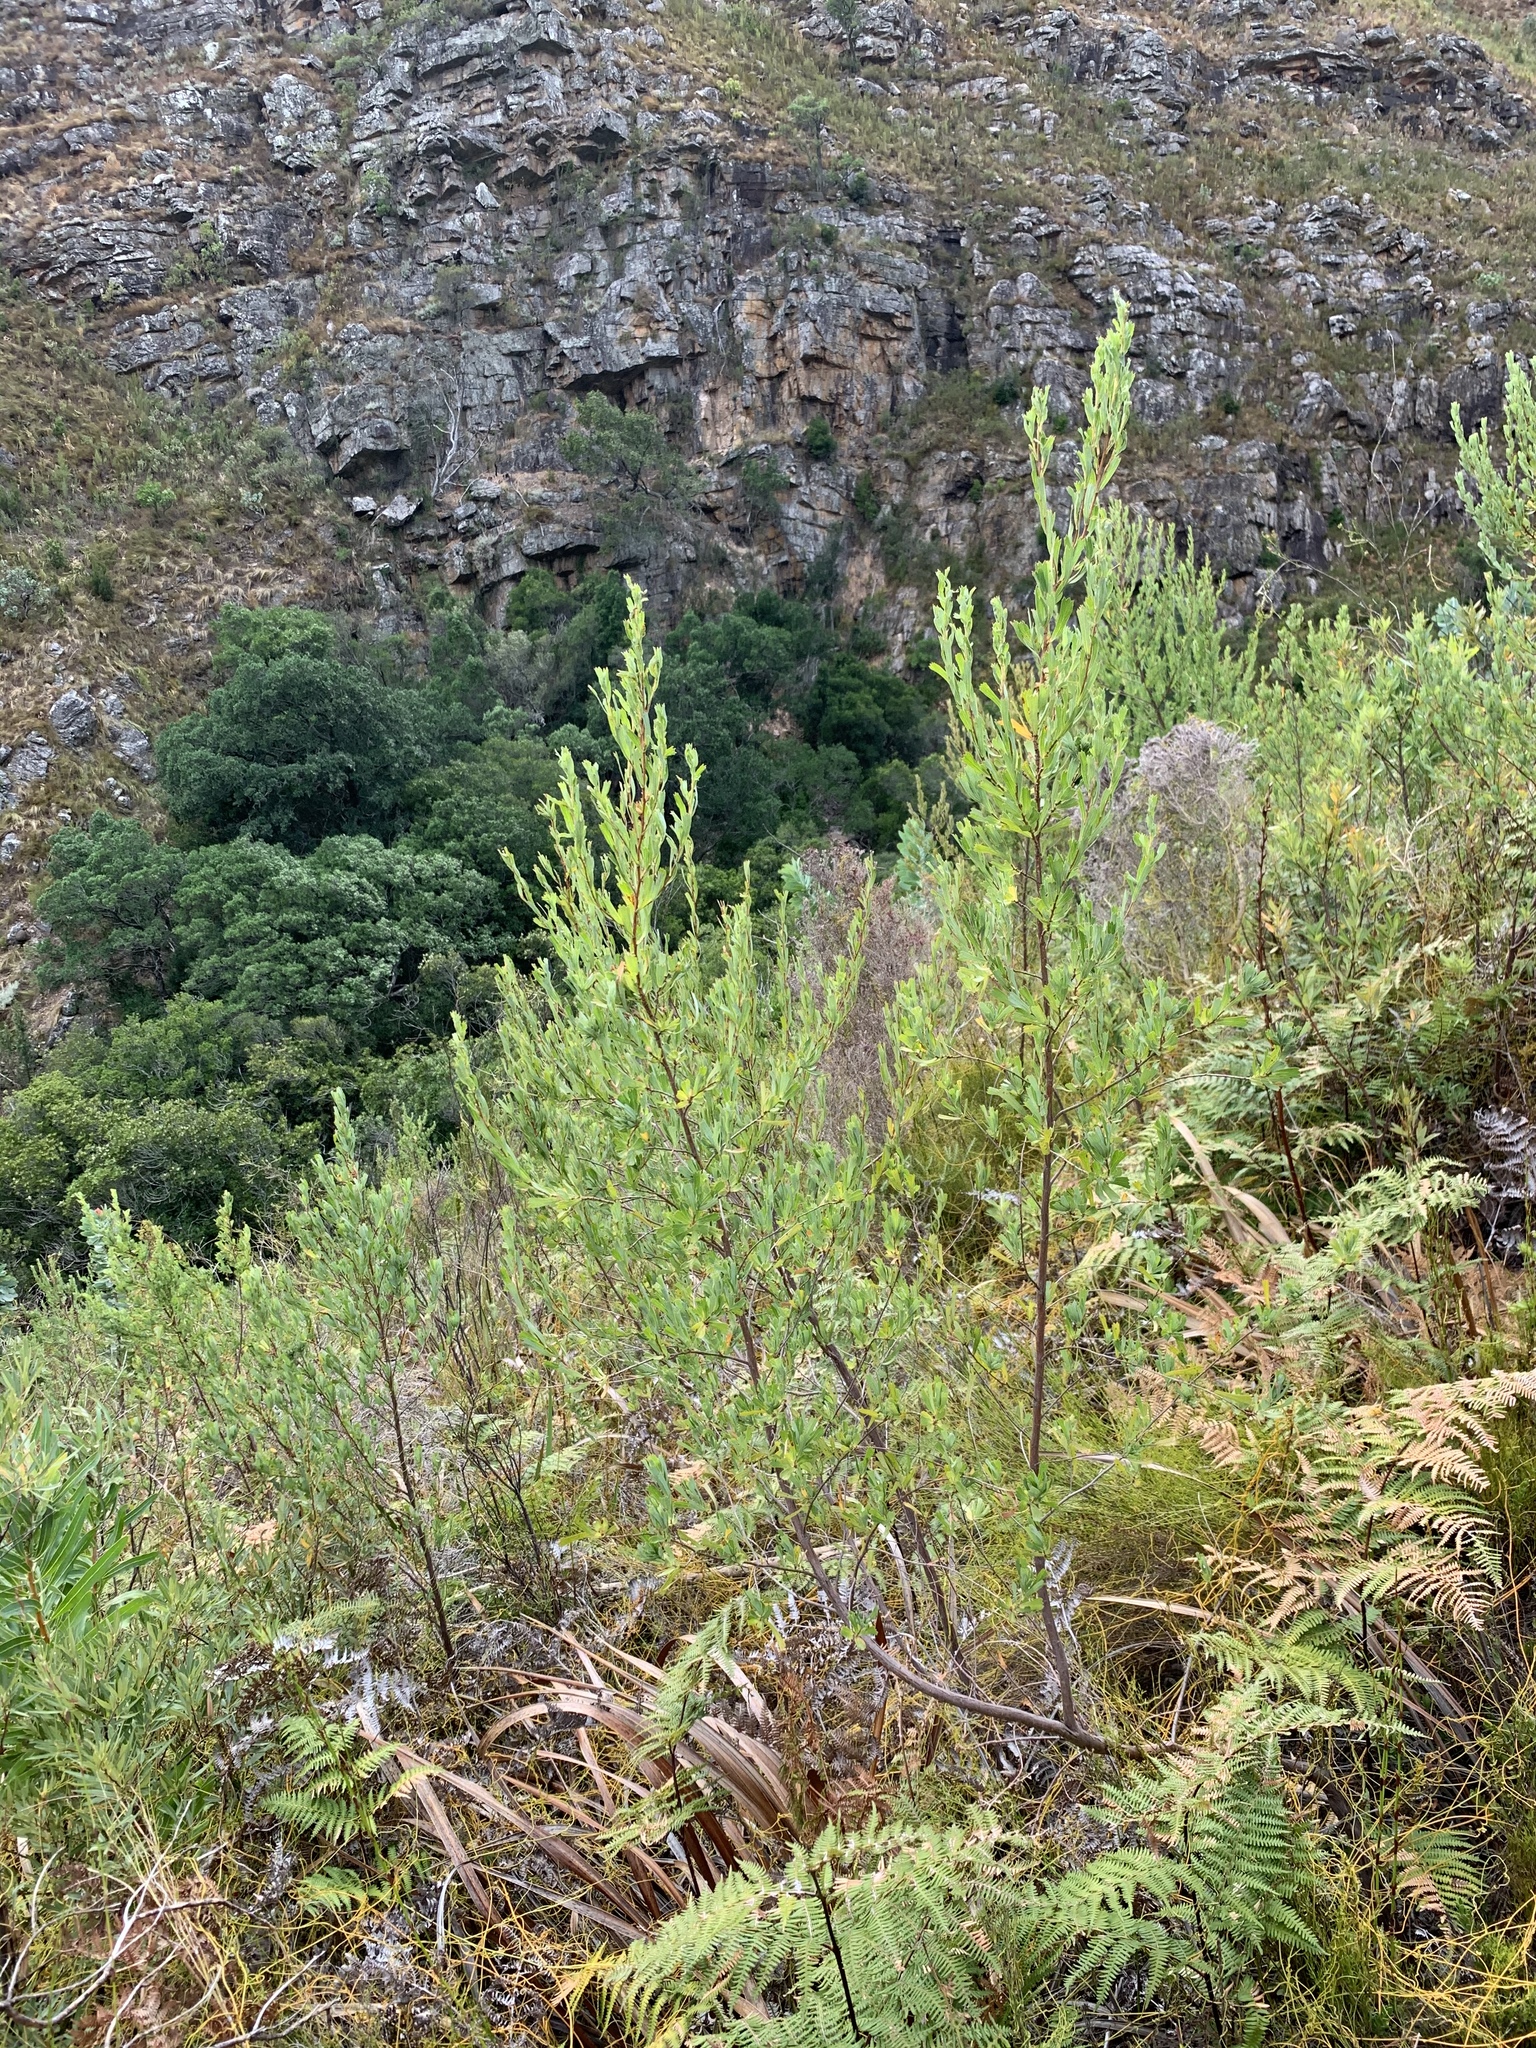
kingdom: Plantae
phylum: Tracheophyta
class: Magnoliopsida
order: Rosales
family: Rosaceae
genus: Cliffortia
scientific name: Cliffortia cuneata
